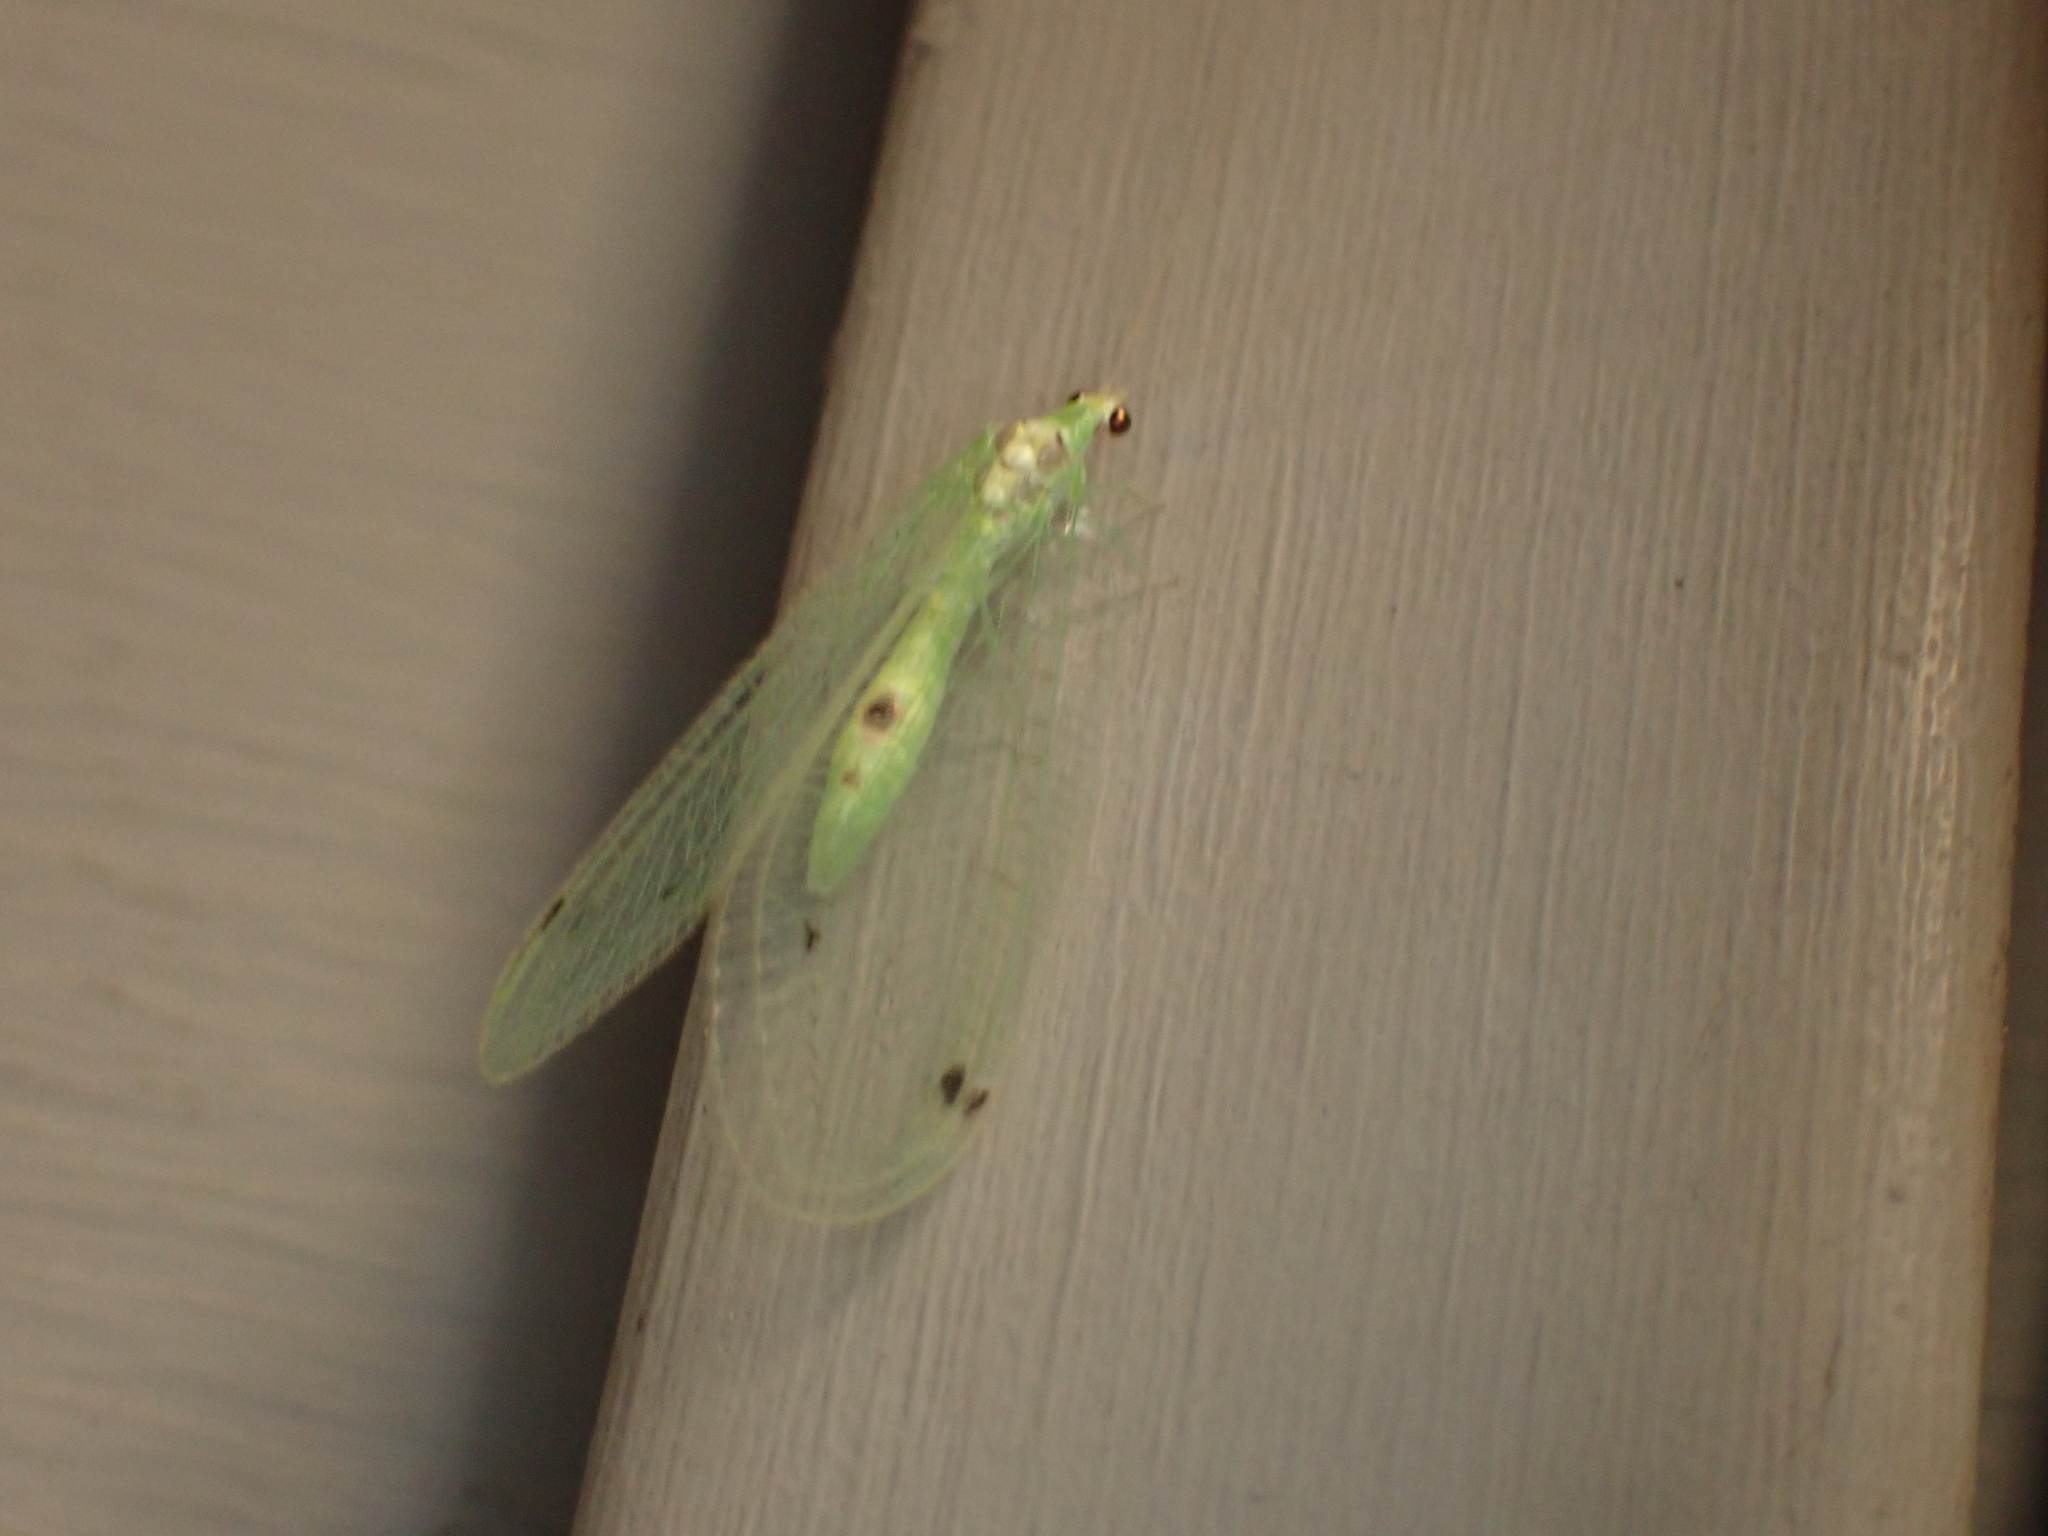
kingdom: Animalia
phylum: Arthropoda
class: Insecta
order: Neuroptera
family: Chrysopidae
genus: Leucochrysa
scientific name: Leucochrysa insularis
